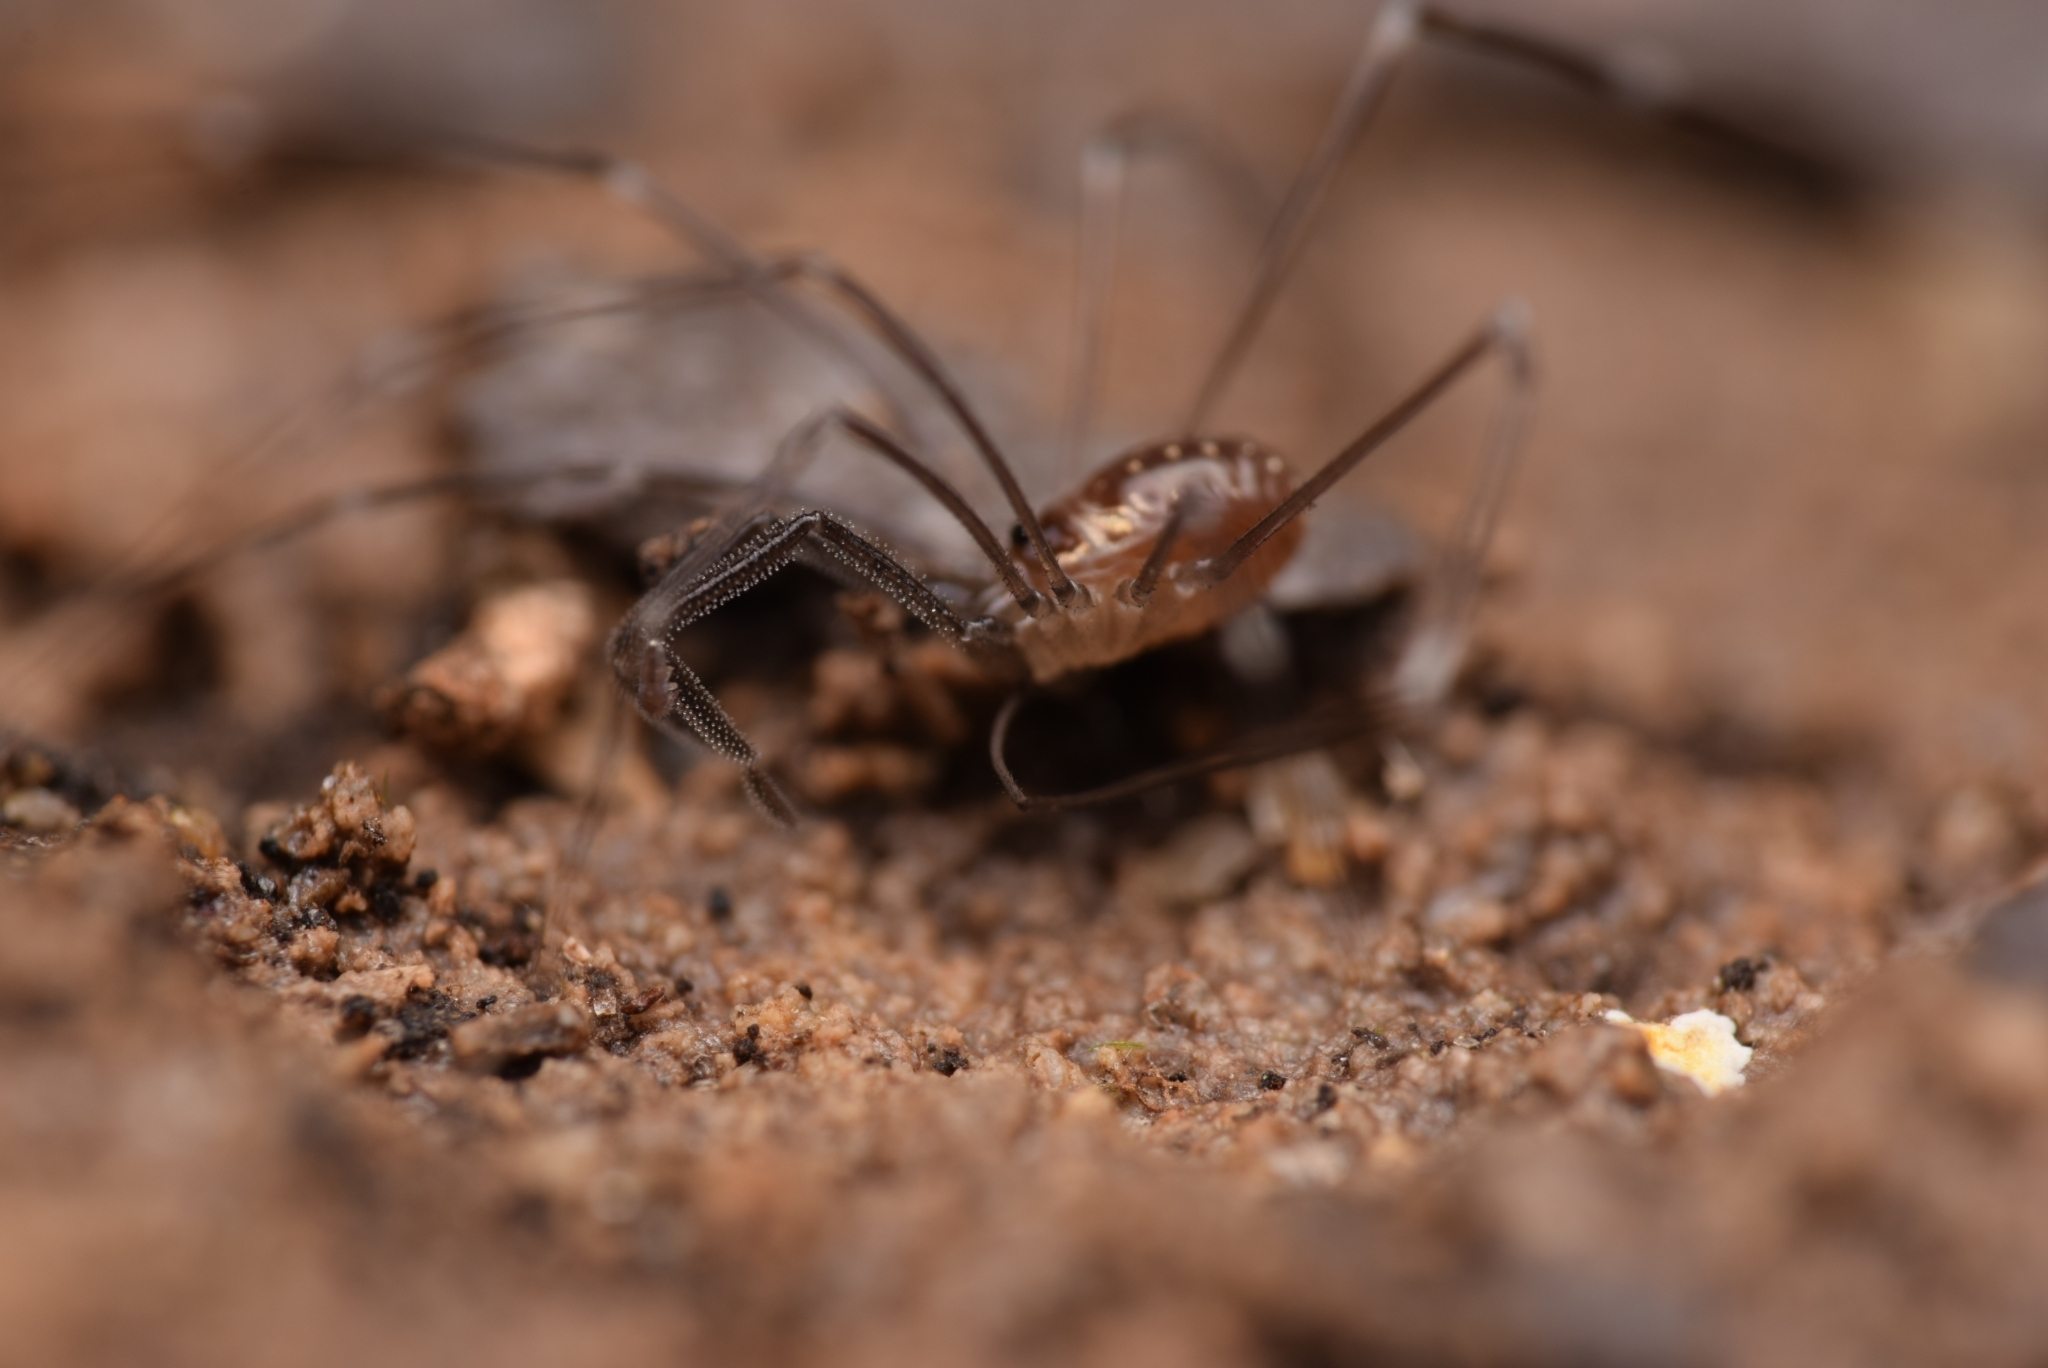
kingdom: Animalia
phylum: Arthropoda
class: Arachnida
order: Opiliones
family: Nemastomatidae
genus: Mitostoma
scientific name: Mitostoma chrysomelas
